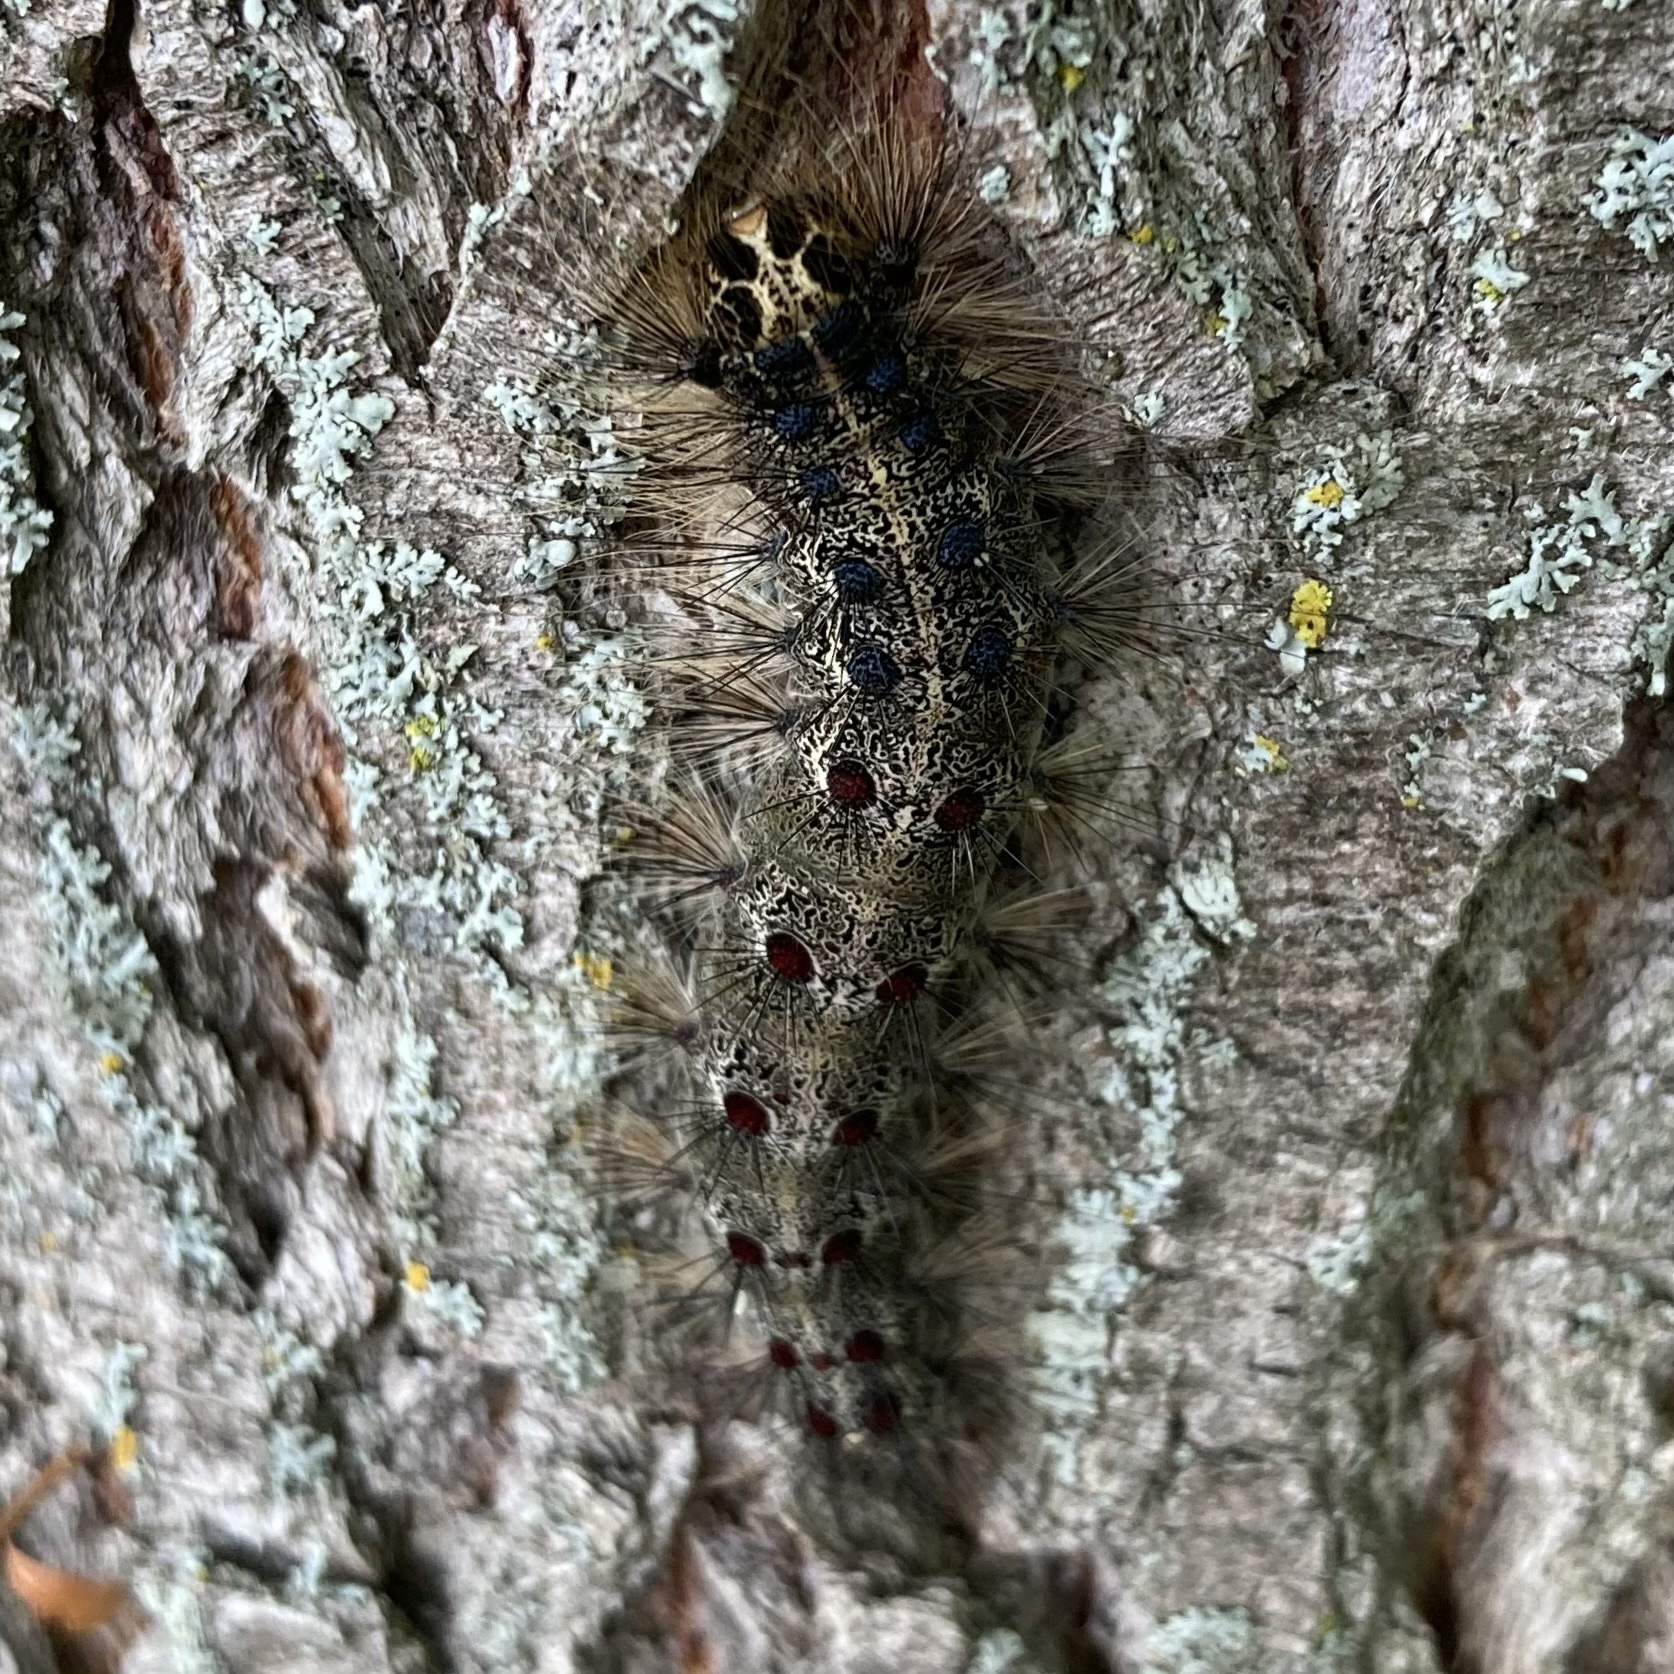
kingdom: Animalia
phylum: Arthropoda
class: Insecta
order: Lepidoptera
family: Erebidae
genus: Lymantria
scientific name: Lymantria dispar
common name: Gypsy moth
